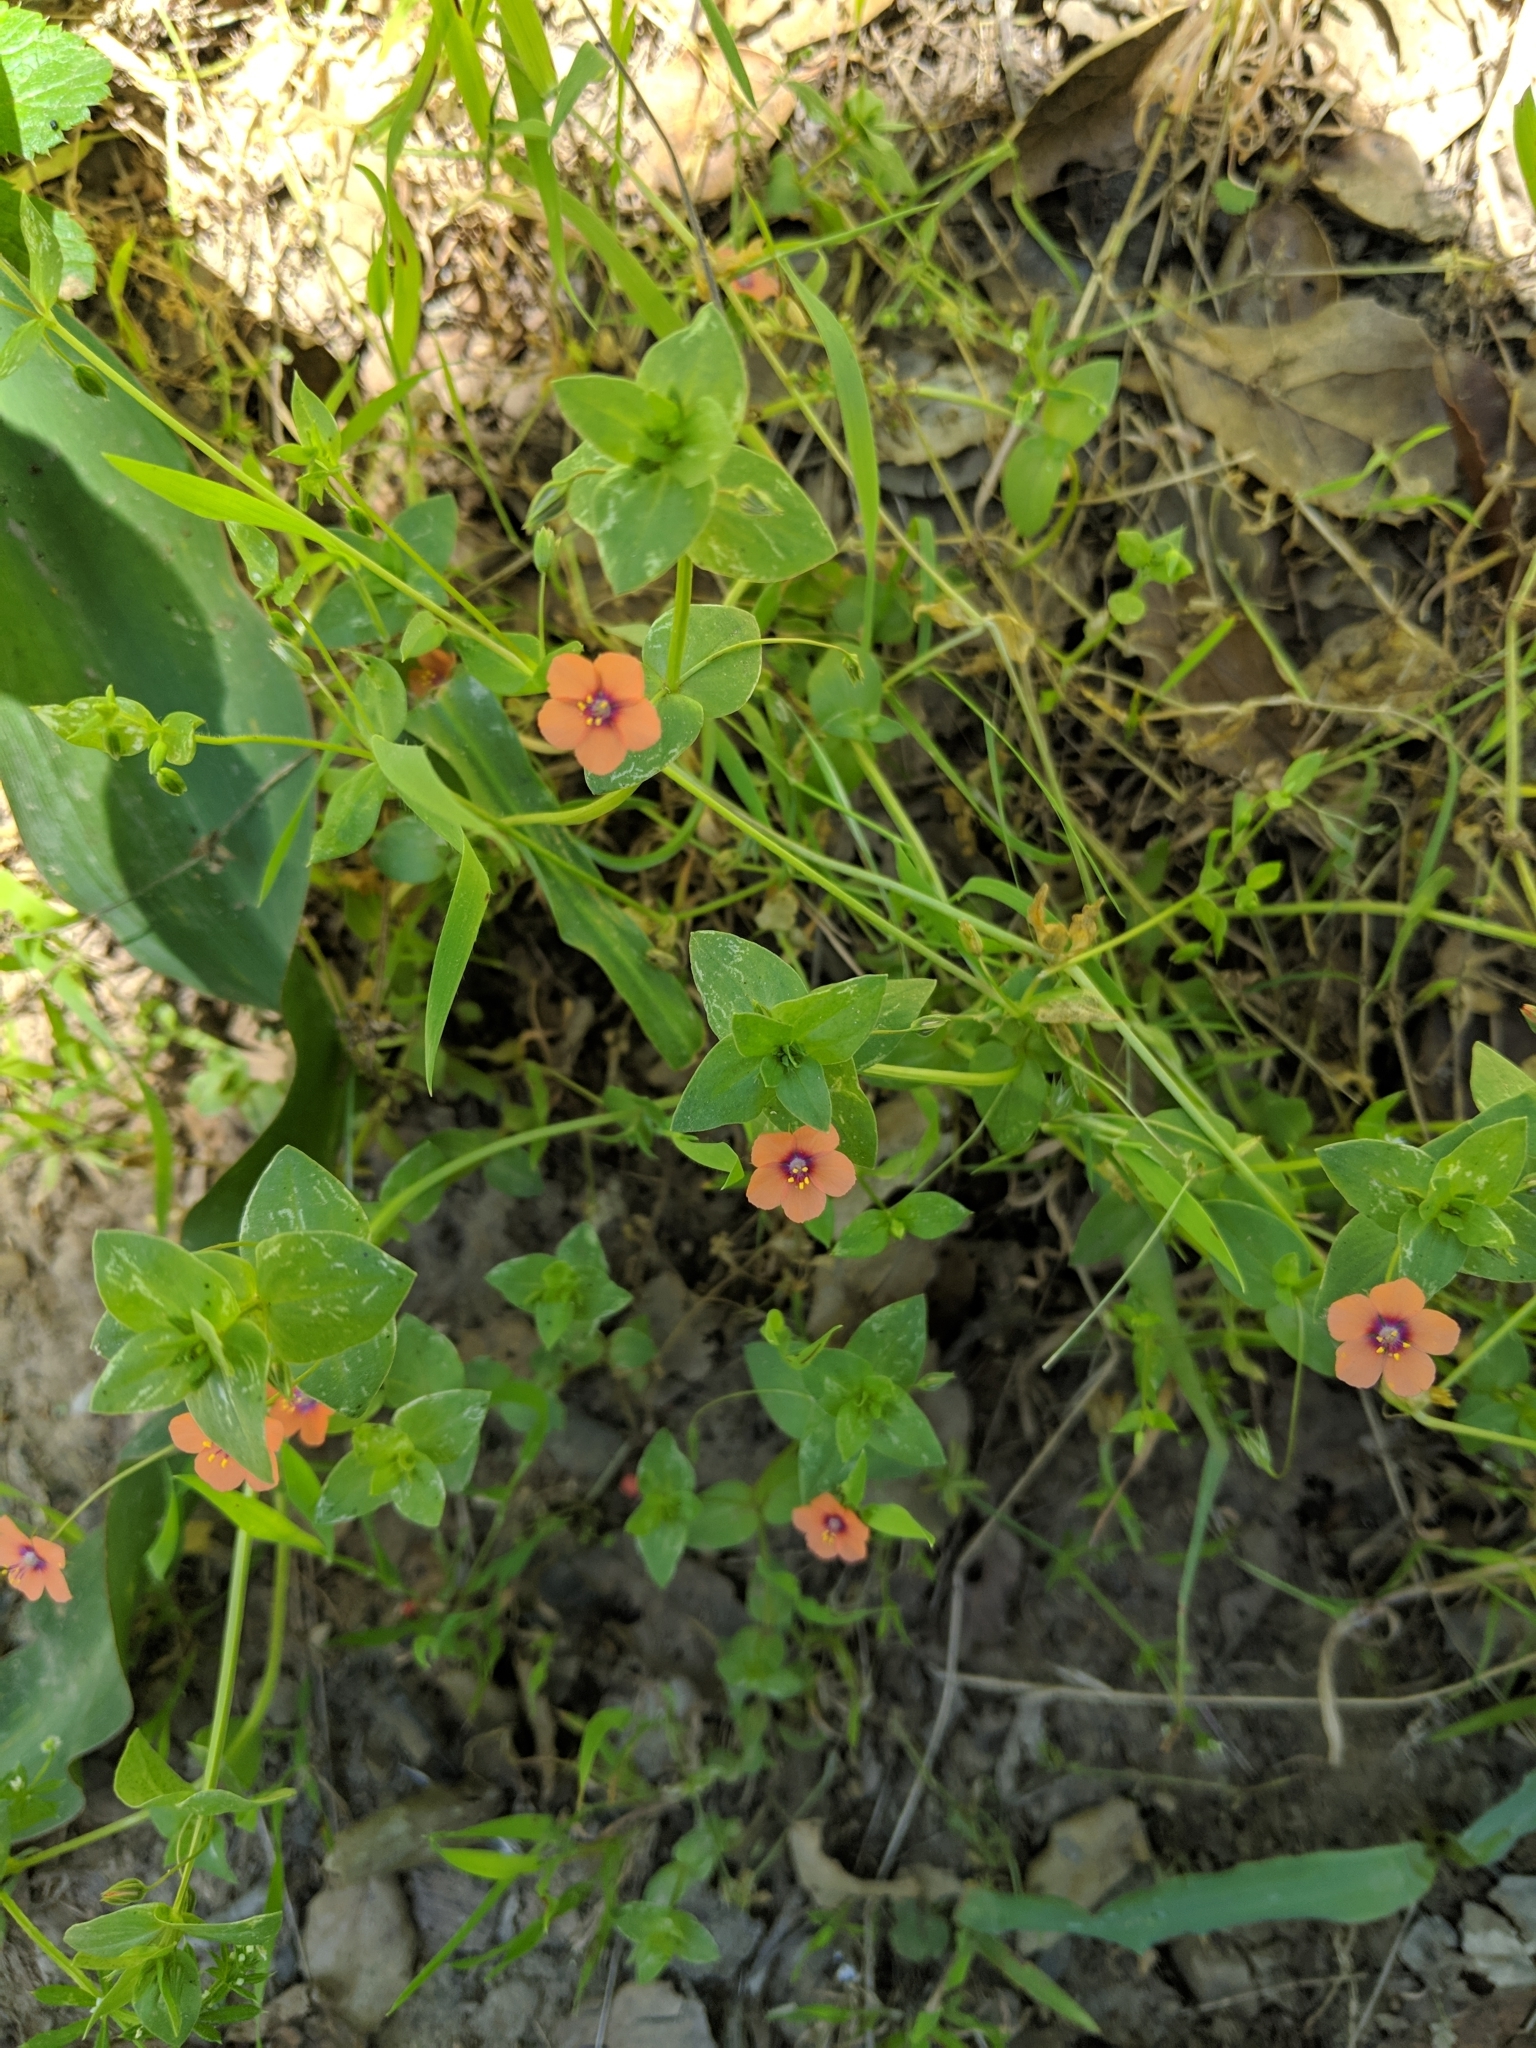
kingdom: Plantae
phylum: Tracheophyta
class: Magnoliopsida
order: Ericales
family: Primulaceae
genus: Lysimachia
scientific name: Lysimachia arvensis
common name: Scarlet pimpernel
